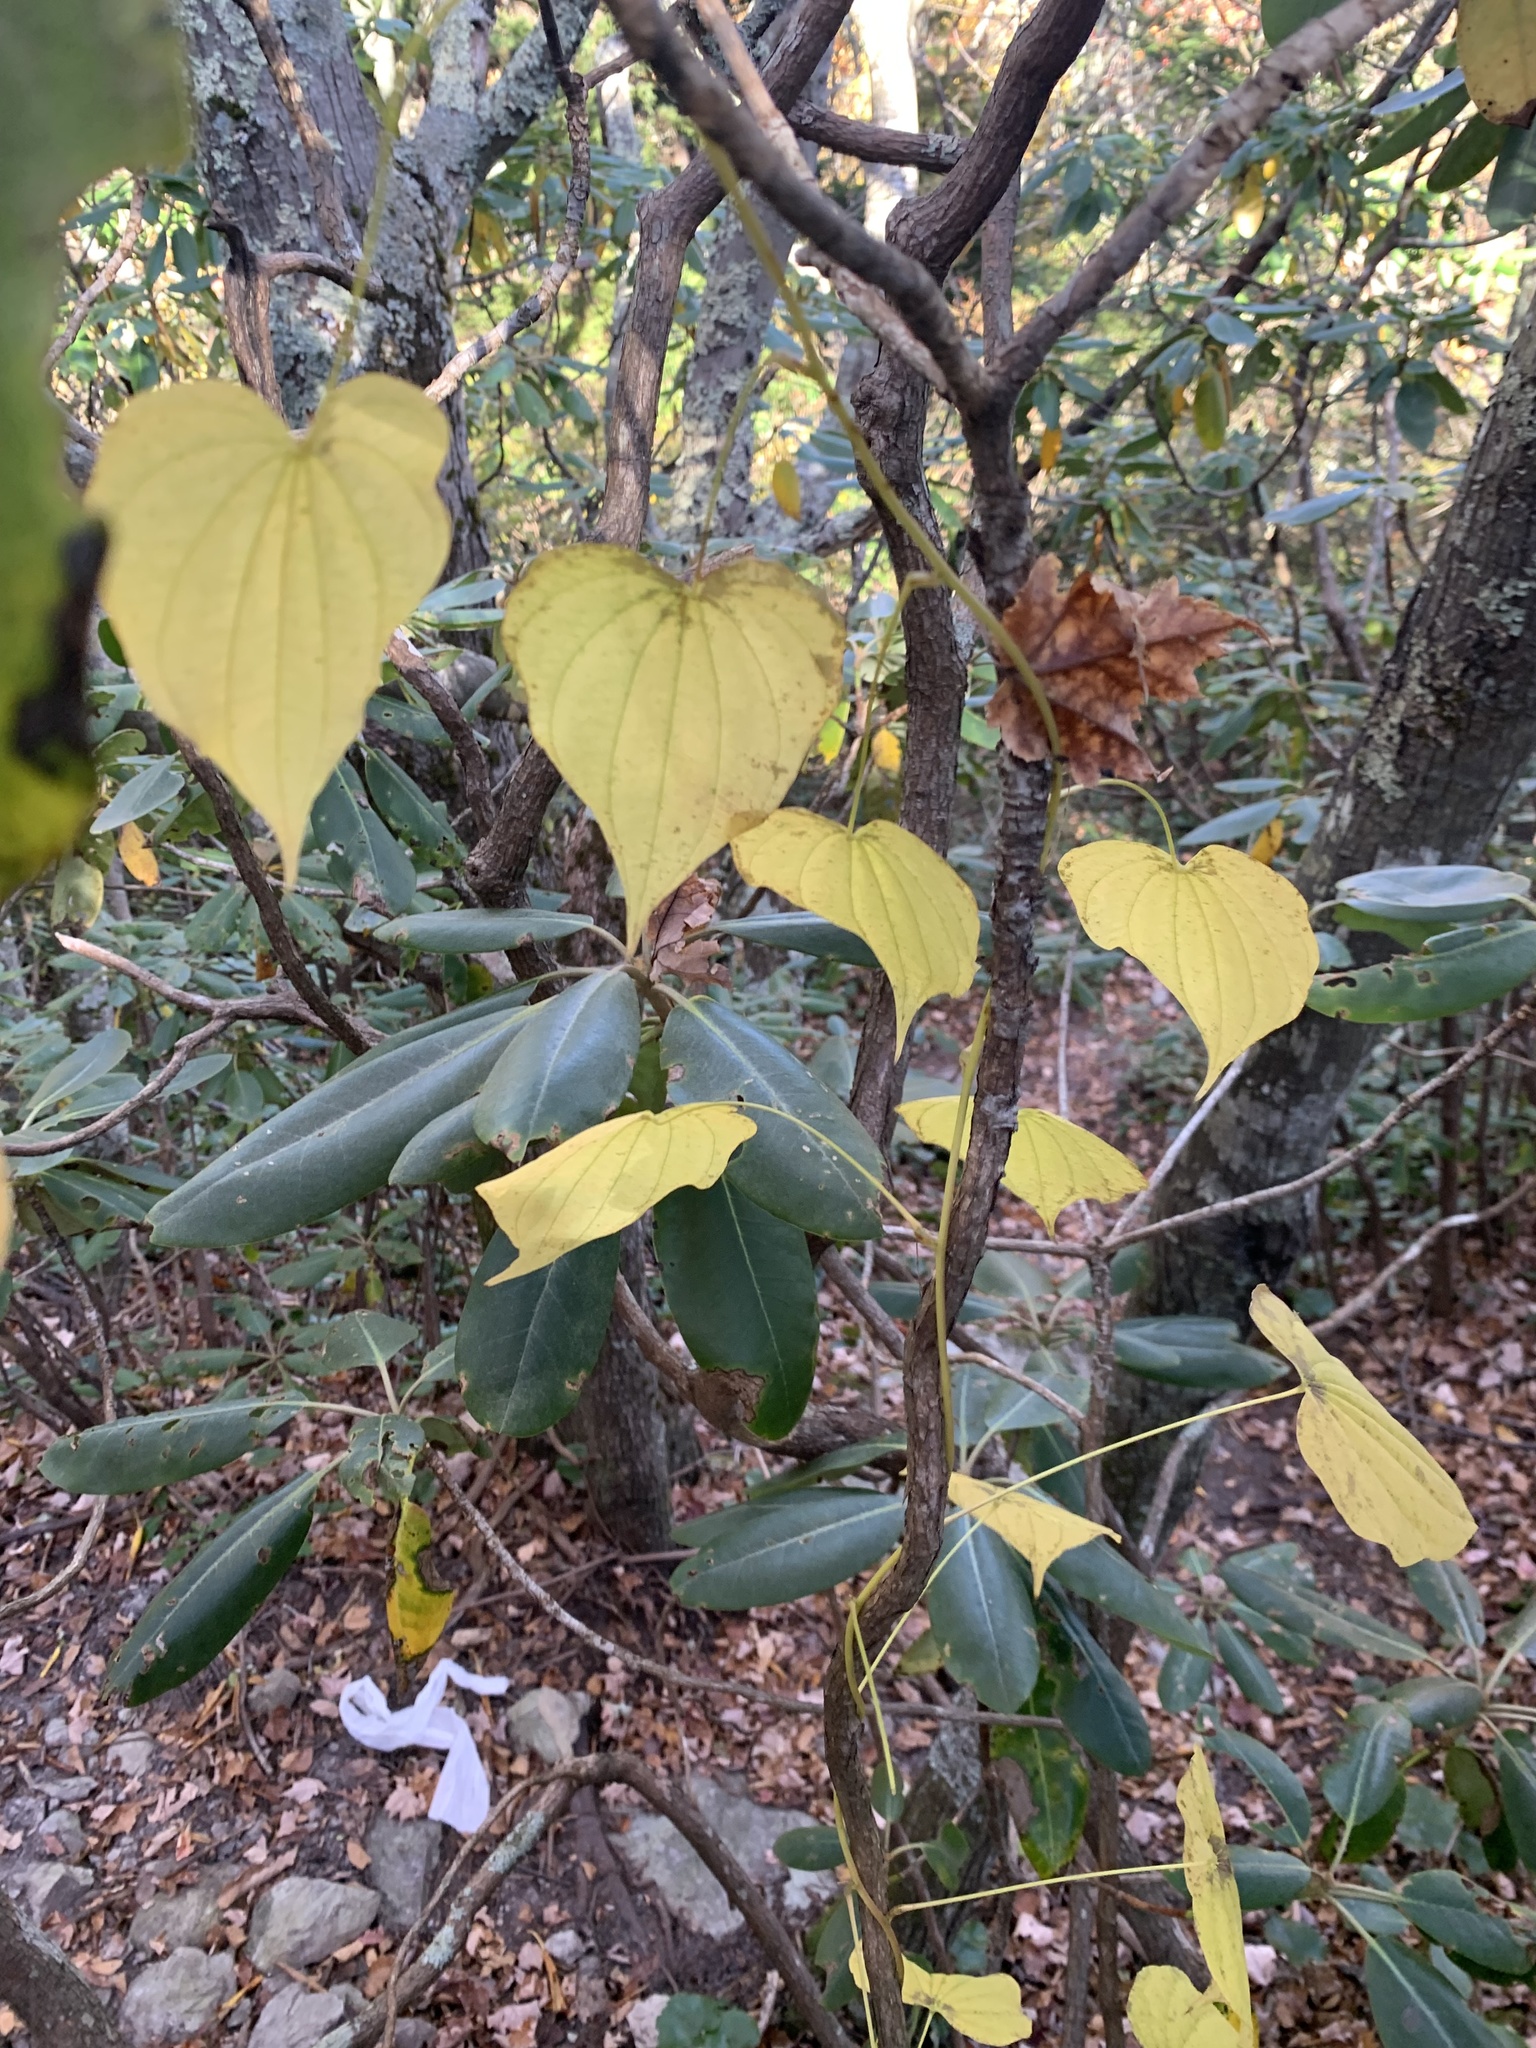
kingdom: Plantae
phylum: Tracheophyta
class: Liliopsida
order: Dioscoreales
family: Dioscoreaceae
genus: Dioscorea
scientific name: Dioscorea villosa
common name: Wild yam
